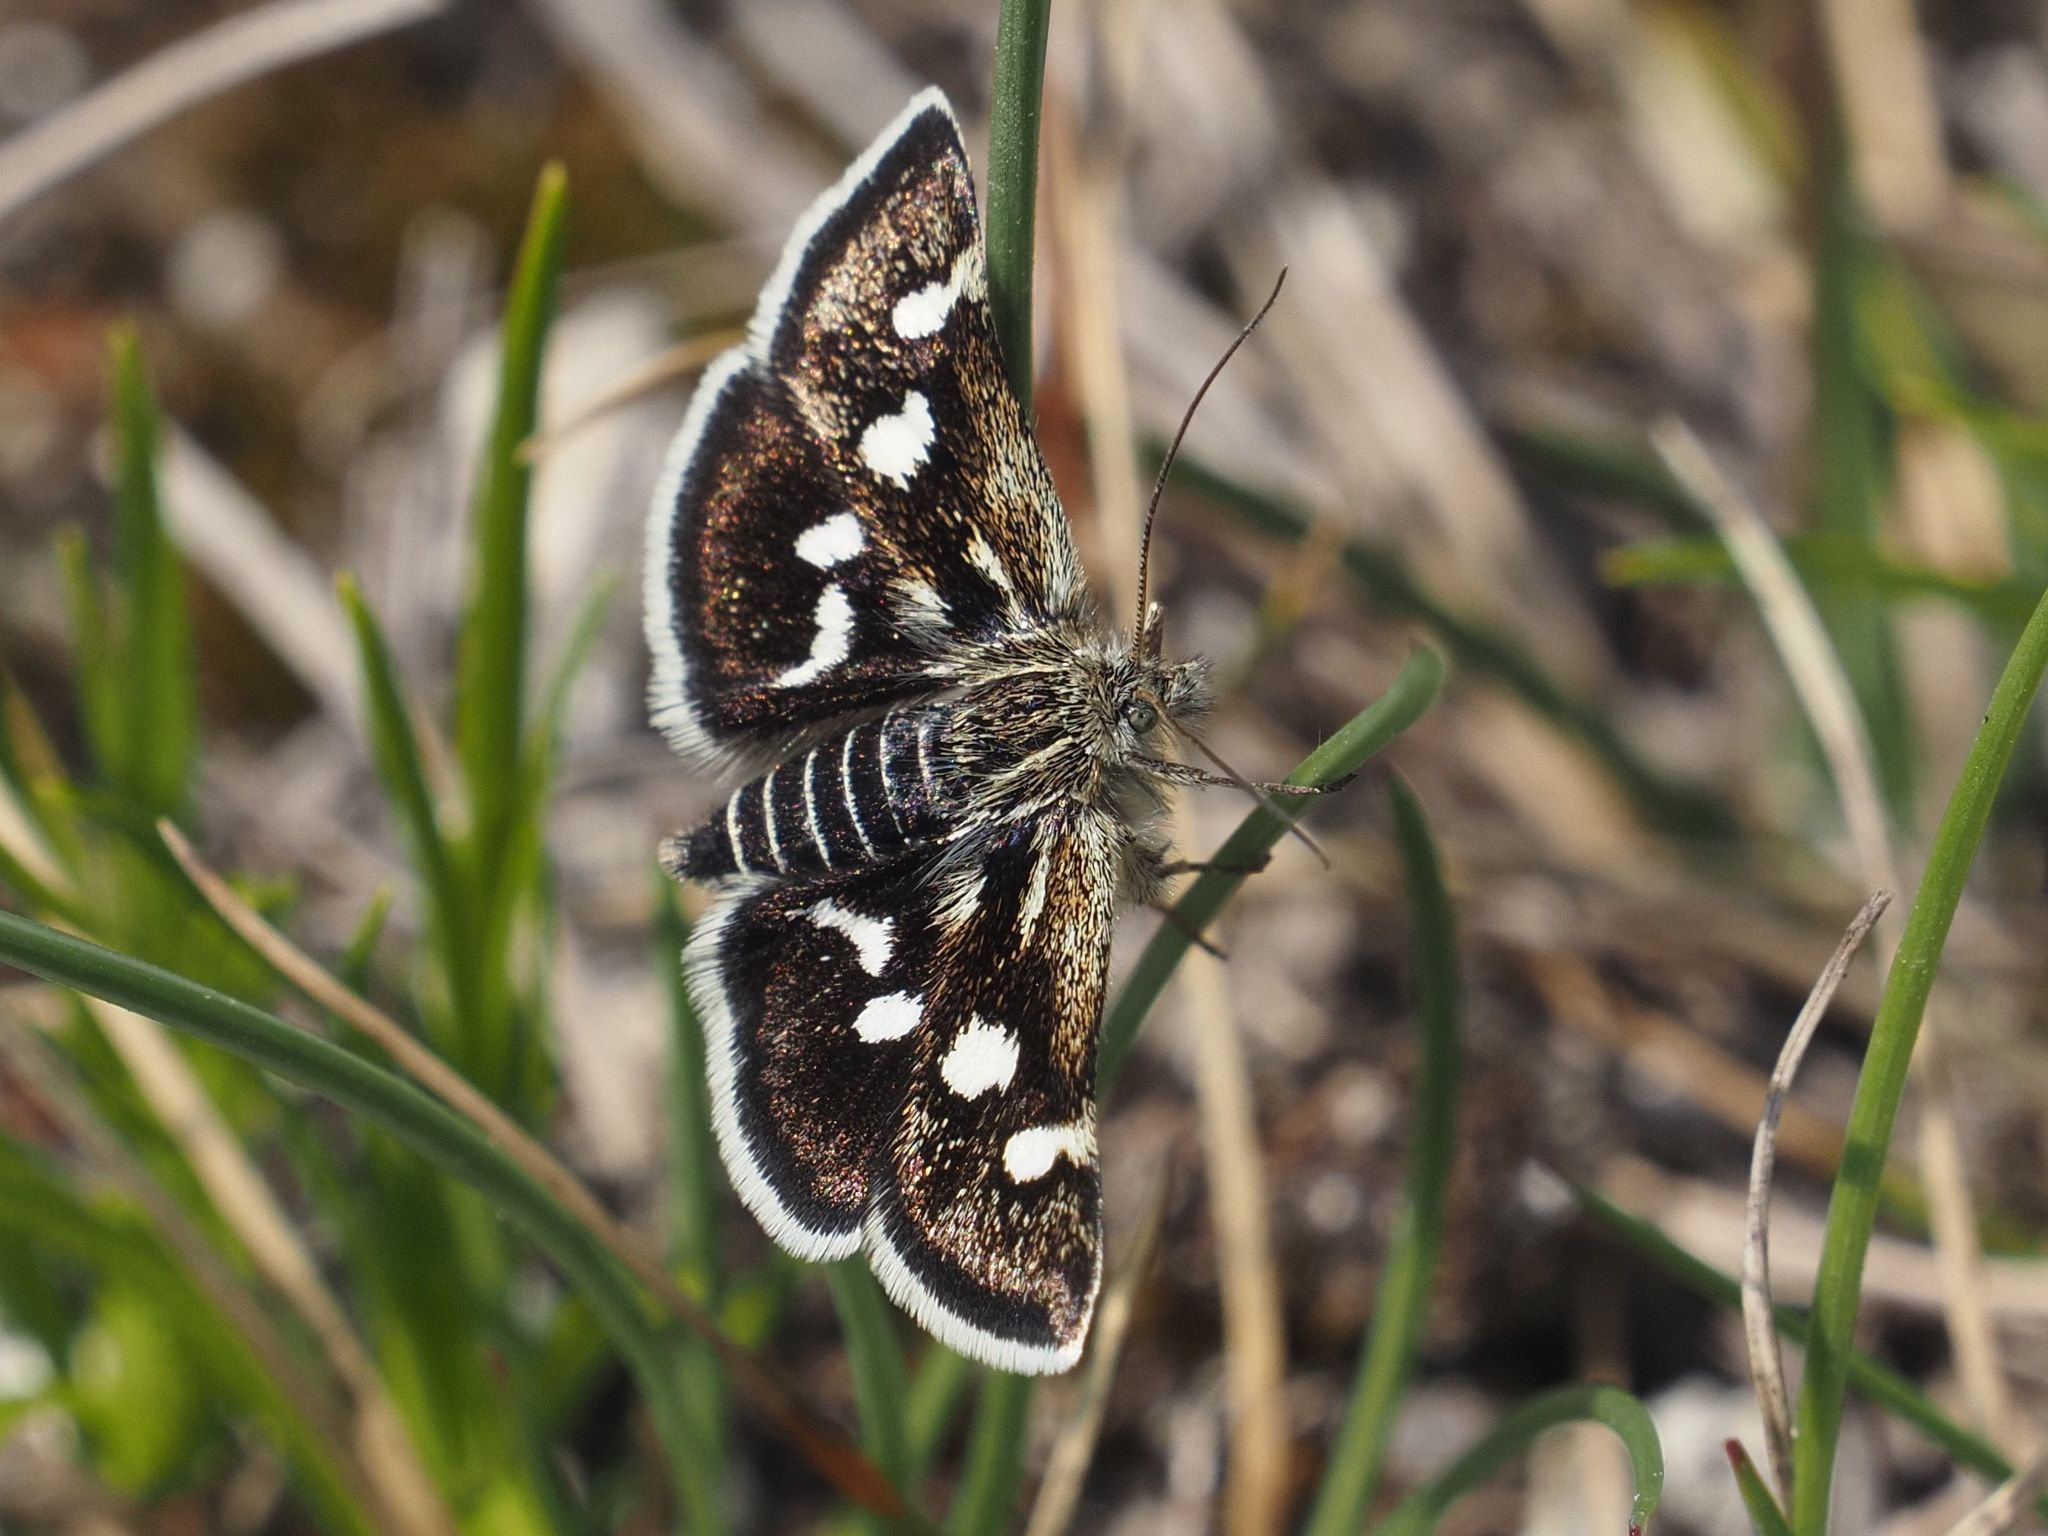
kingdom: Animalia
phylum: Arthropoda
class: Insecta
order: Lepidoptera
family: Crambidae
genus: Eurrhypis
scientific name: Eurrhypis pollinalis
